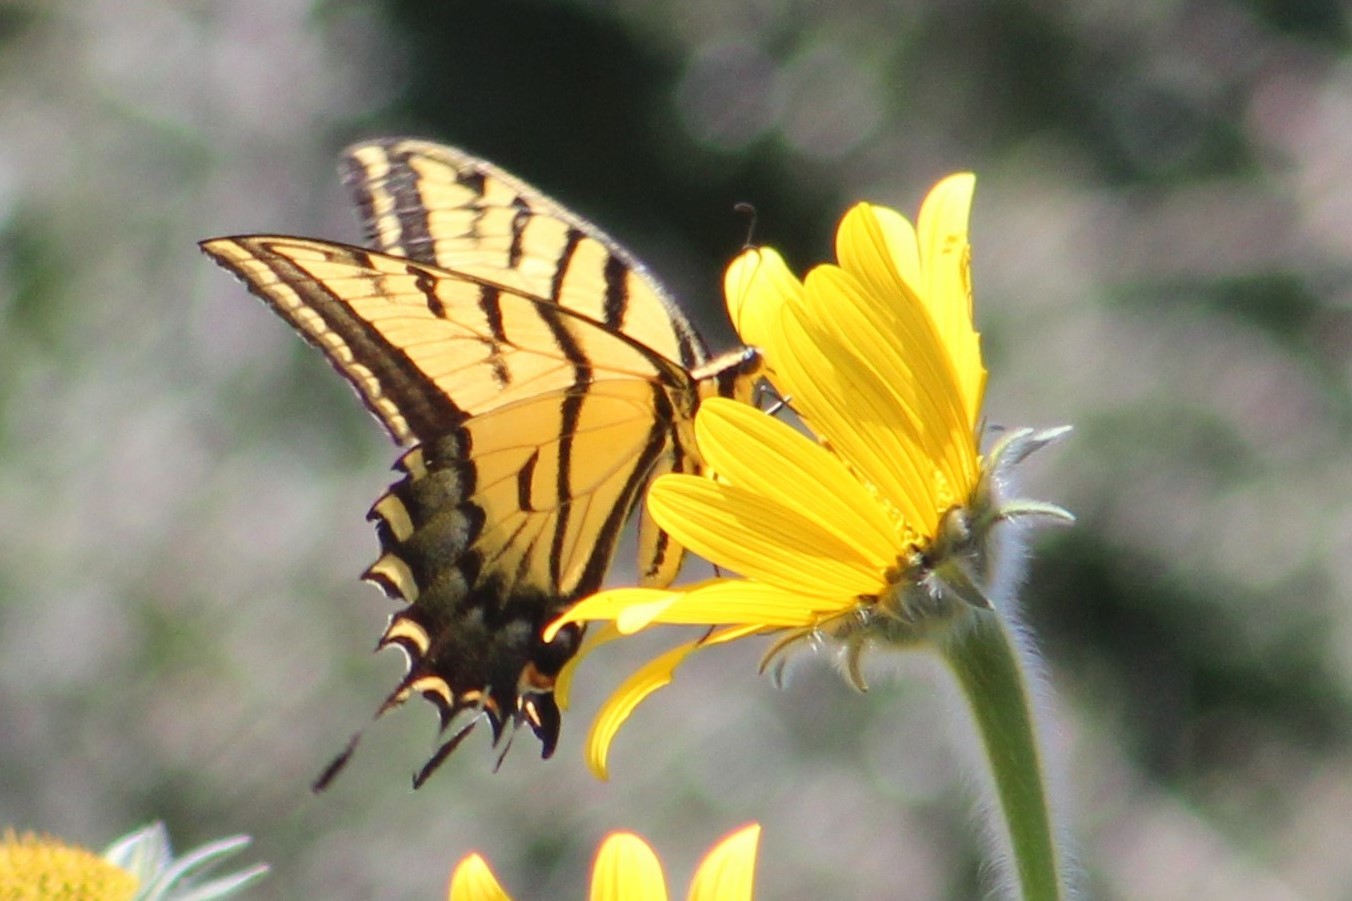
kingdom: Animalia
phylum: Arthropoda
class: Insecta
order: Lepidoptera
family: Papilionidae
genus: Papilio
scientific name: Papilio multicaudata
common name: Two-tailed tiger swallowtail
